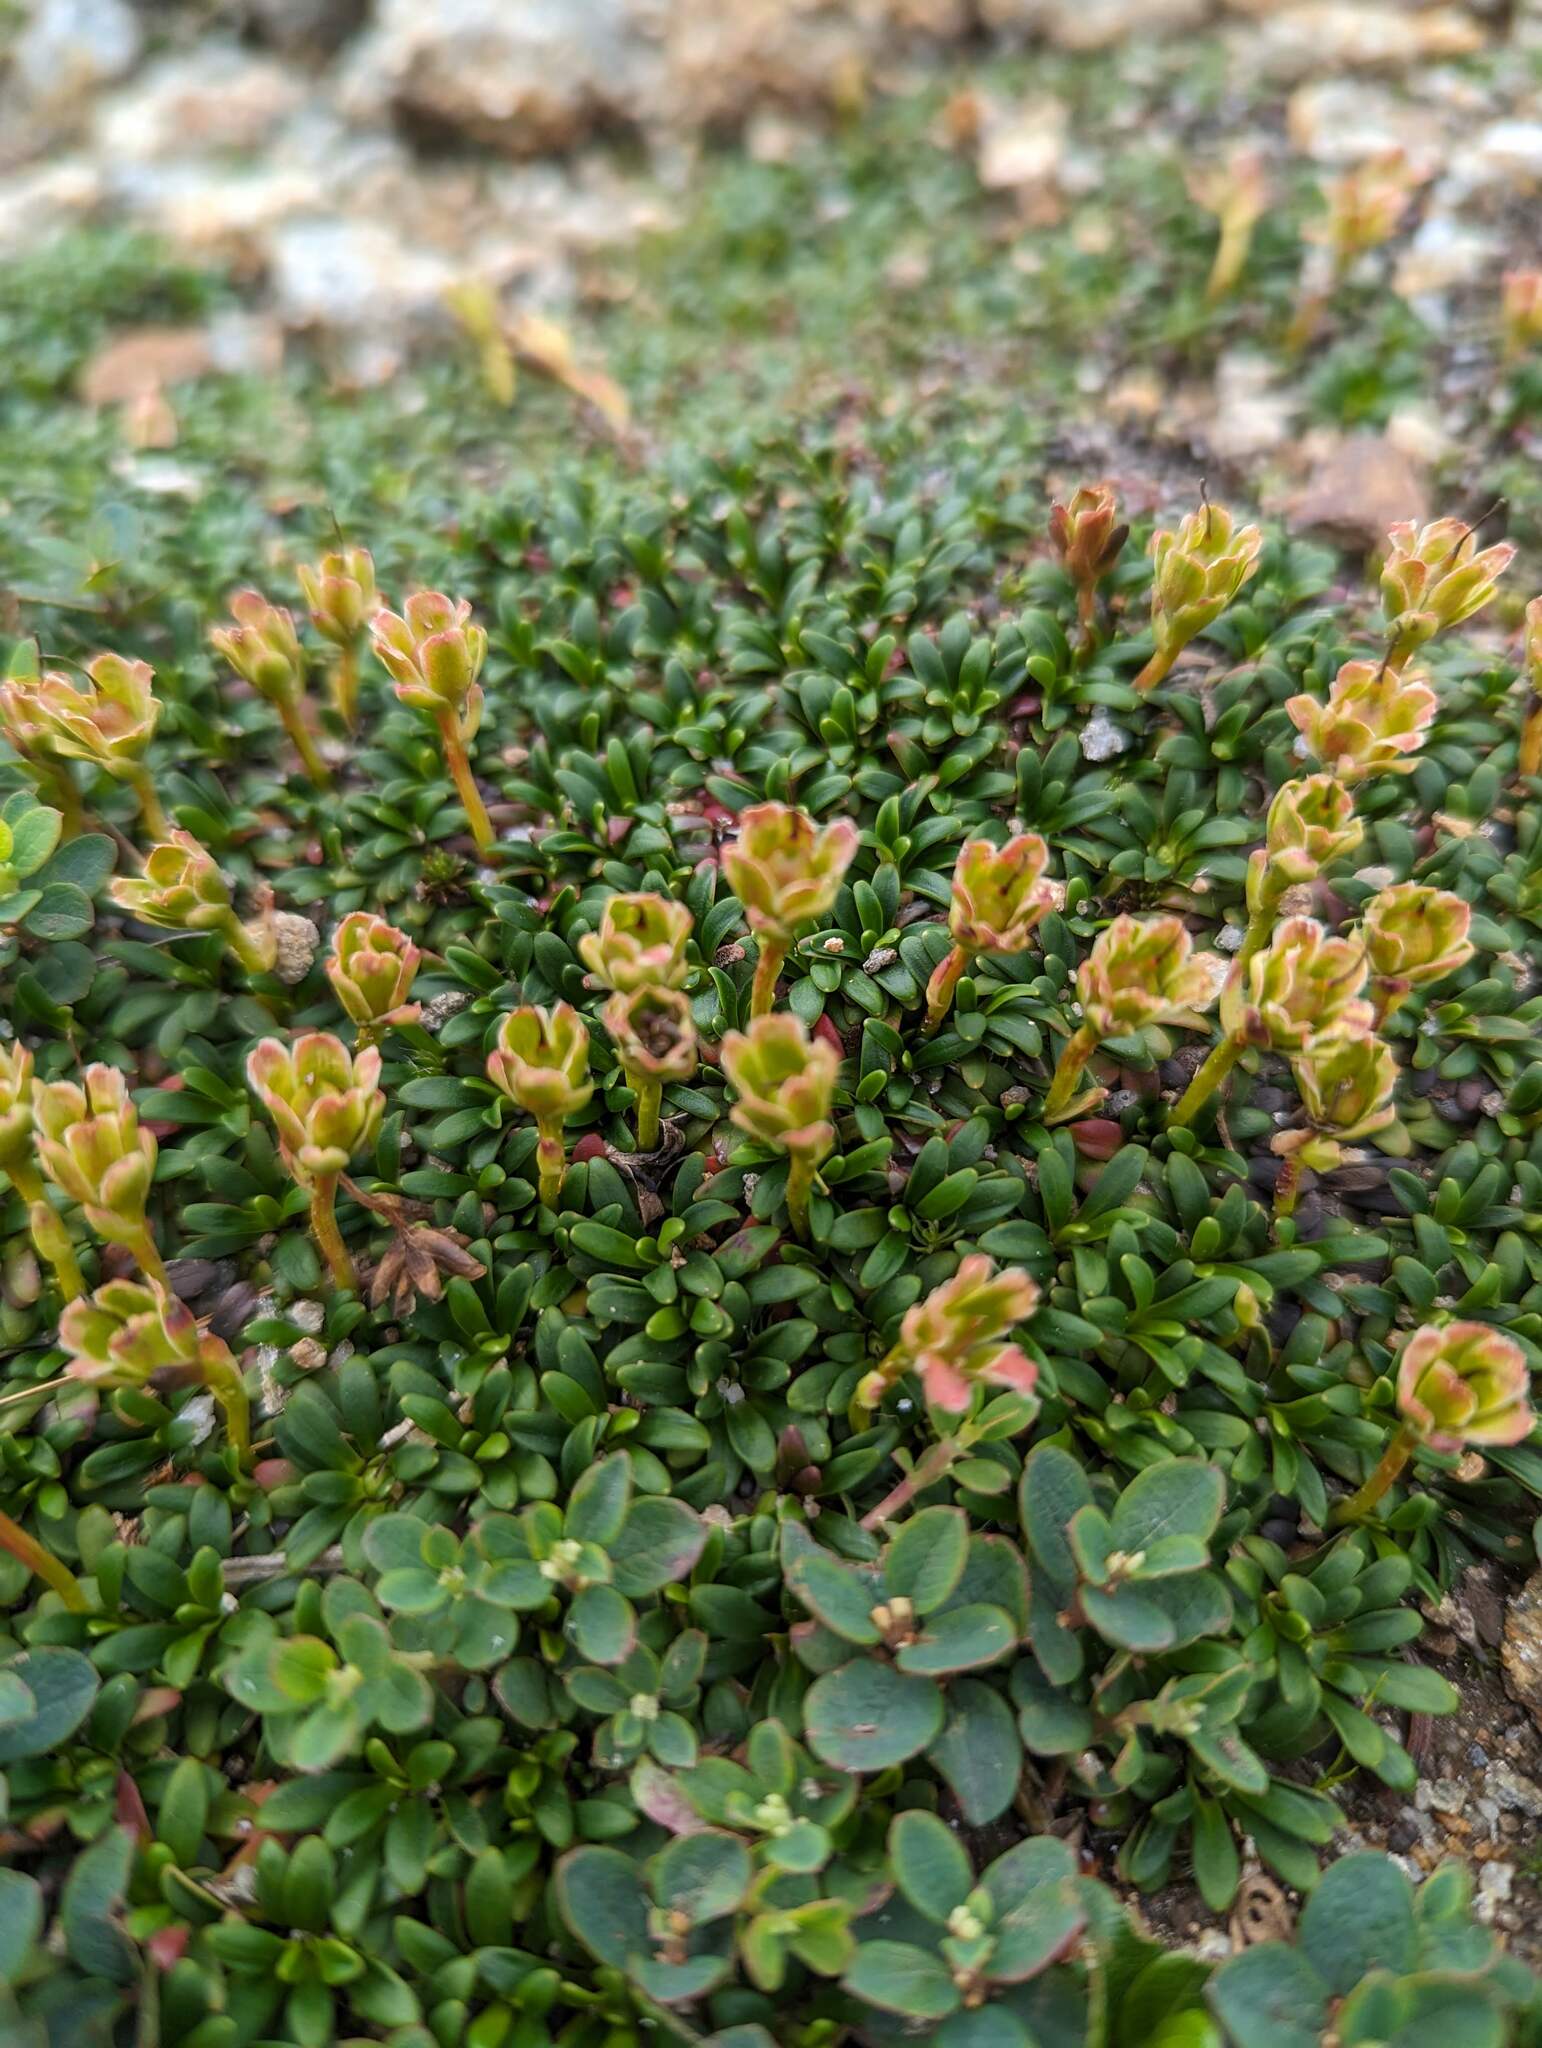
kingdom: Plantae
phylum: Tracheophyta
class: Magnoliopsida
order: Ericales
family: Diapensiaceae
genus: Diapensia
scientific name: Diapensia lapponica
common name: Diapensia
